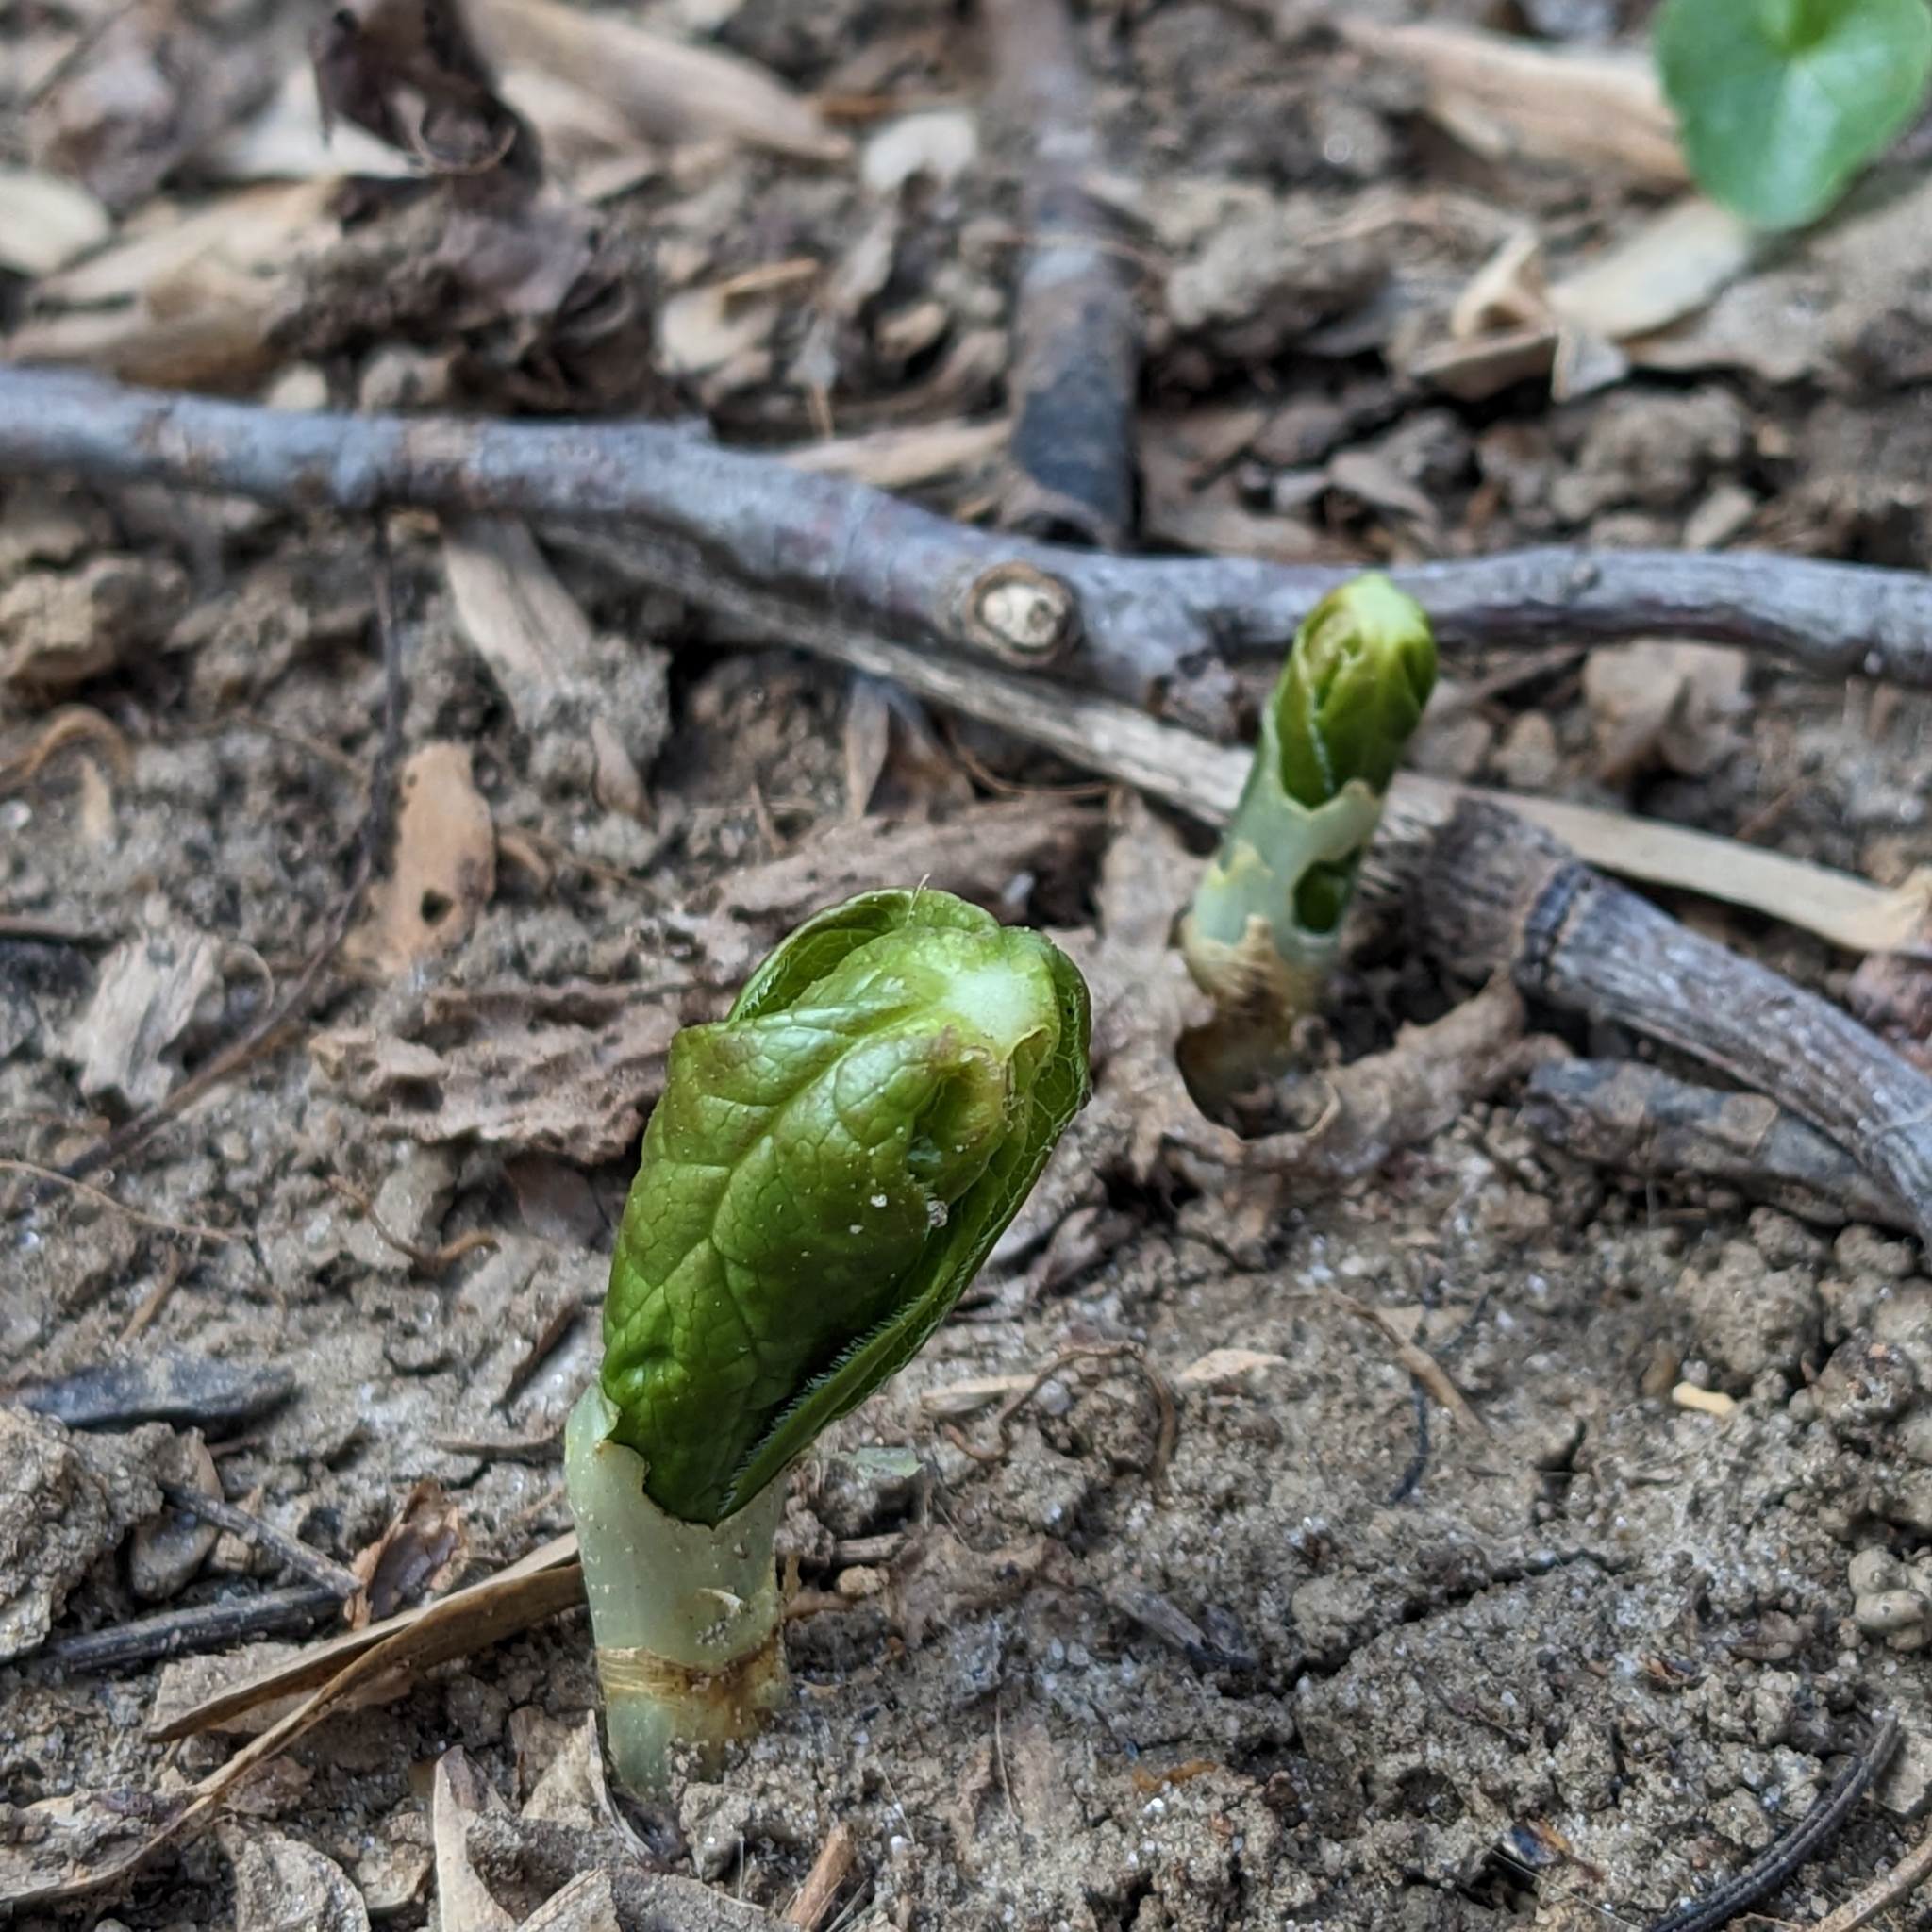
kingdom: Plantae
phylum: Tracheophyta
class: Magnoliopsida
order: Ranunculales
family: Berberidaceae
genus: Podophyllum
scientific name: Podophyllum peltatum
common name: Wild mandrake
